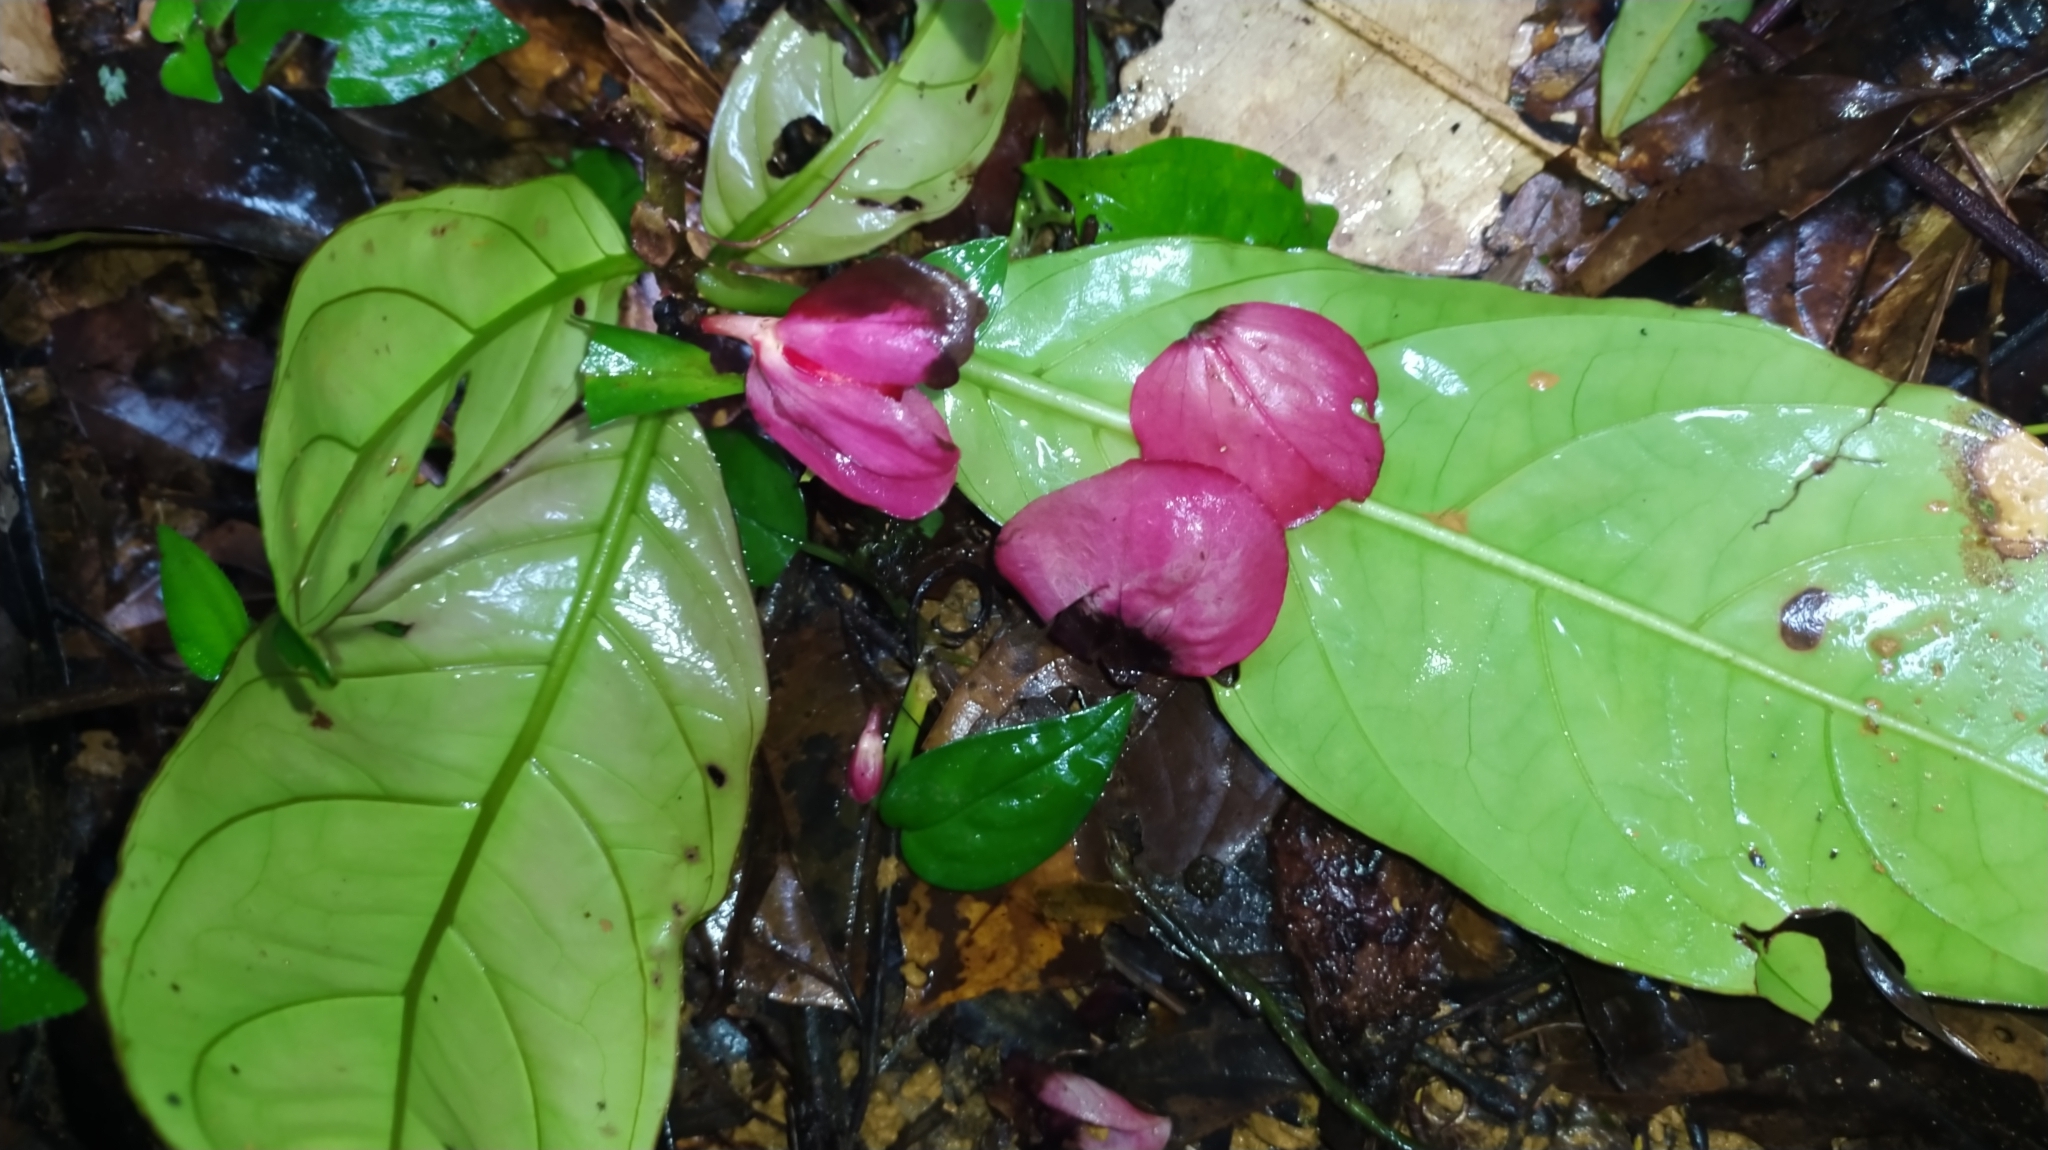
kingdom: Plantae
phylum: Tracheophyta
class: Magnoliopsida
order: Lamiales
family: Gesneriaceae
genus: Drymonia
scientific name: Drymonia coccinea
